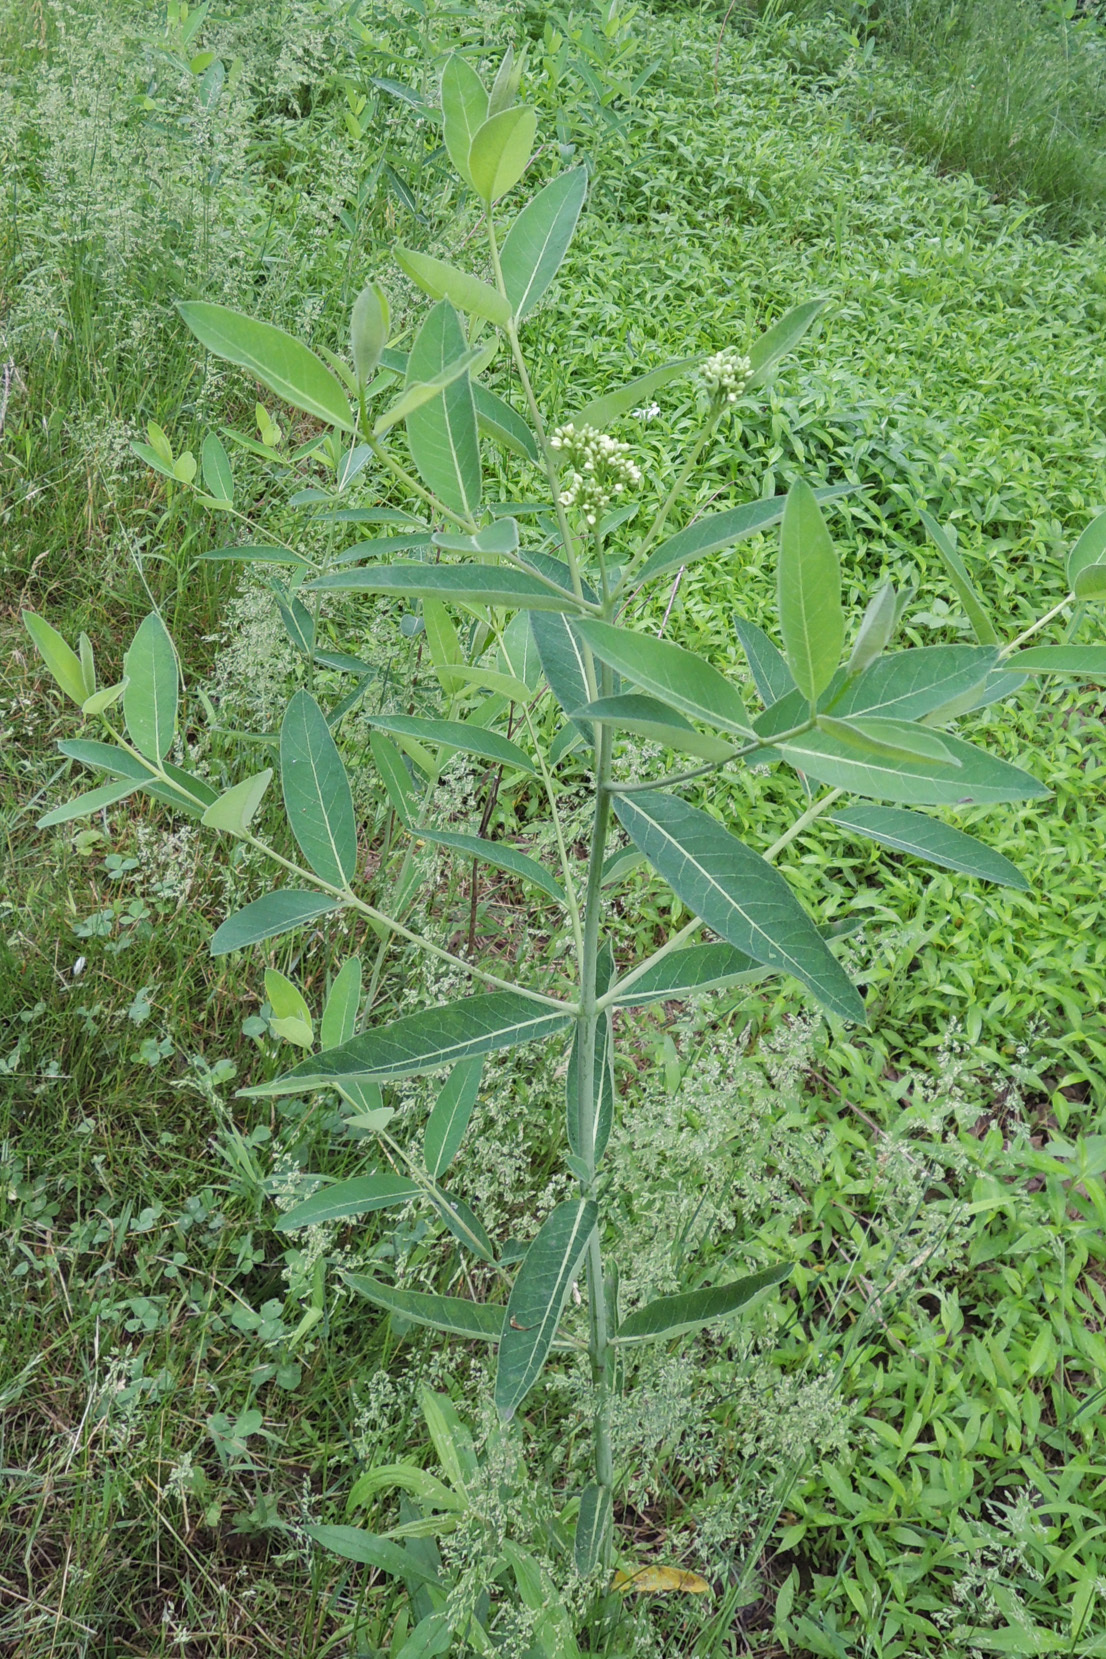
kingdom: Plantae
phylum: Tracheophyta
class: Magnoliopsida
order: Gentianales
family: Apocynaceae
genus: Apocynum
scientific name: Apocynum cannabinum
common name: Hemp dogbane
